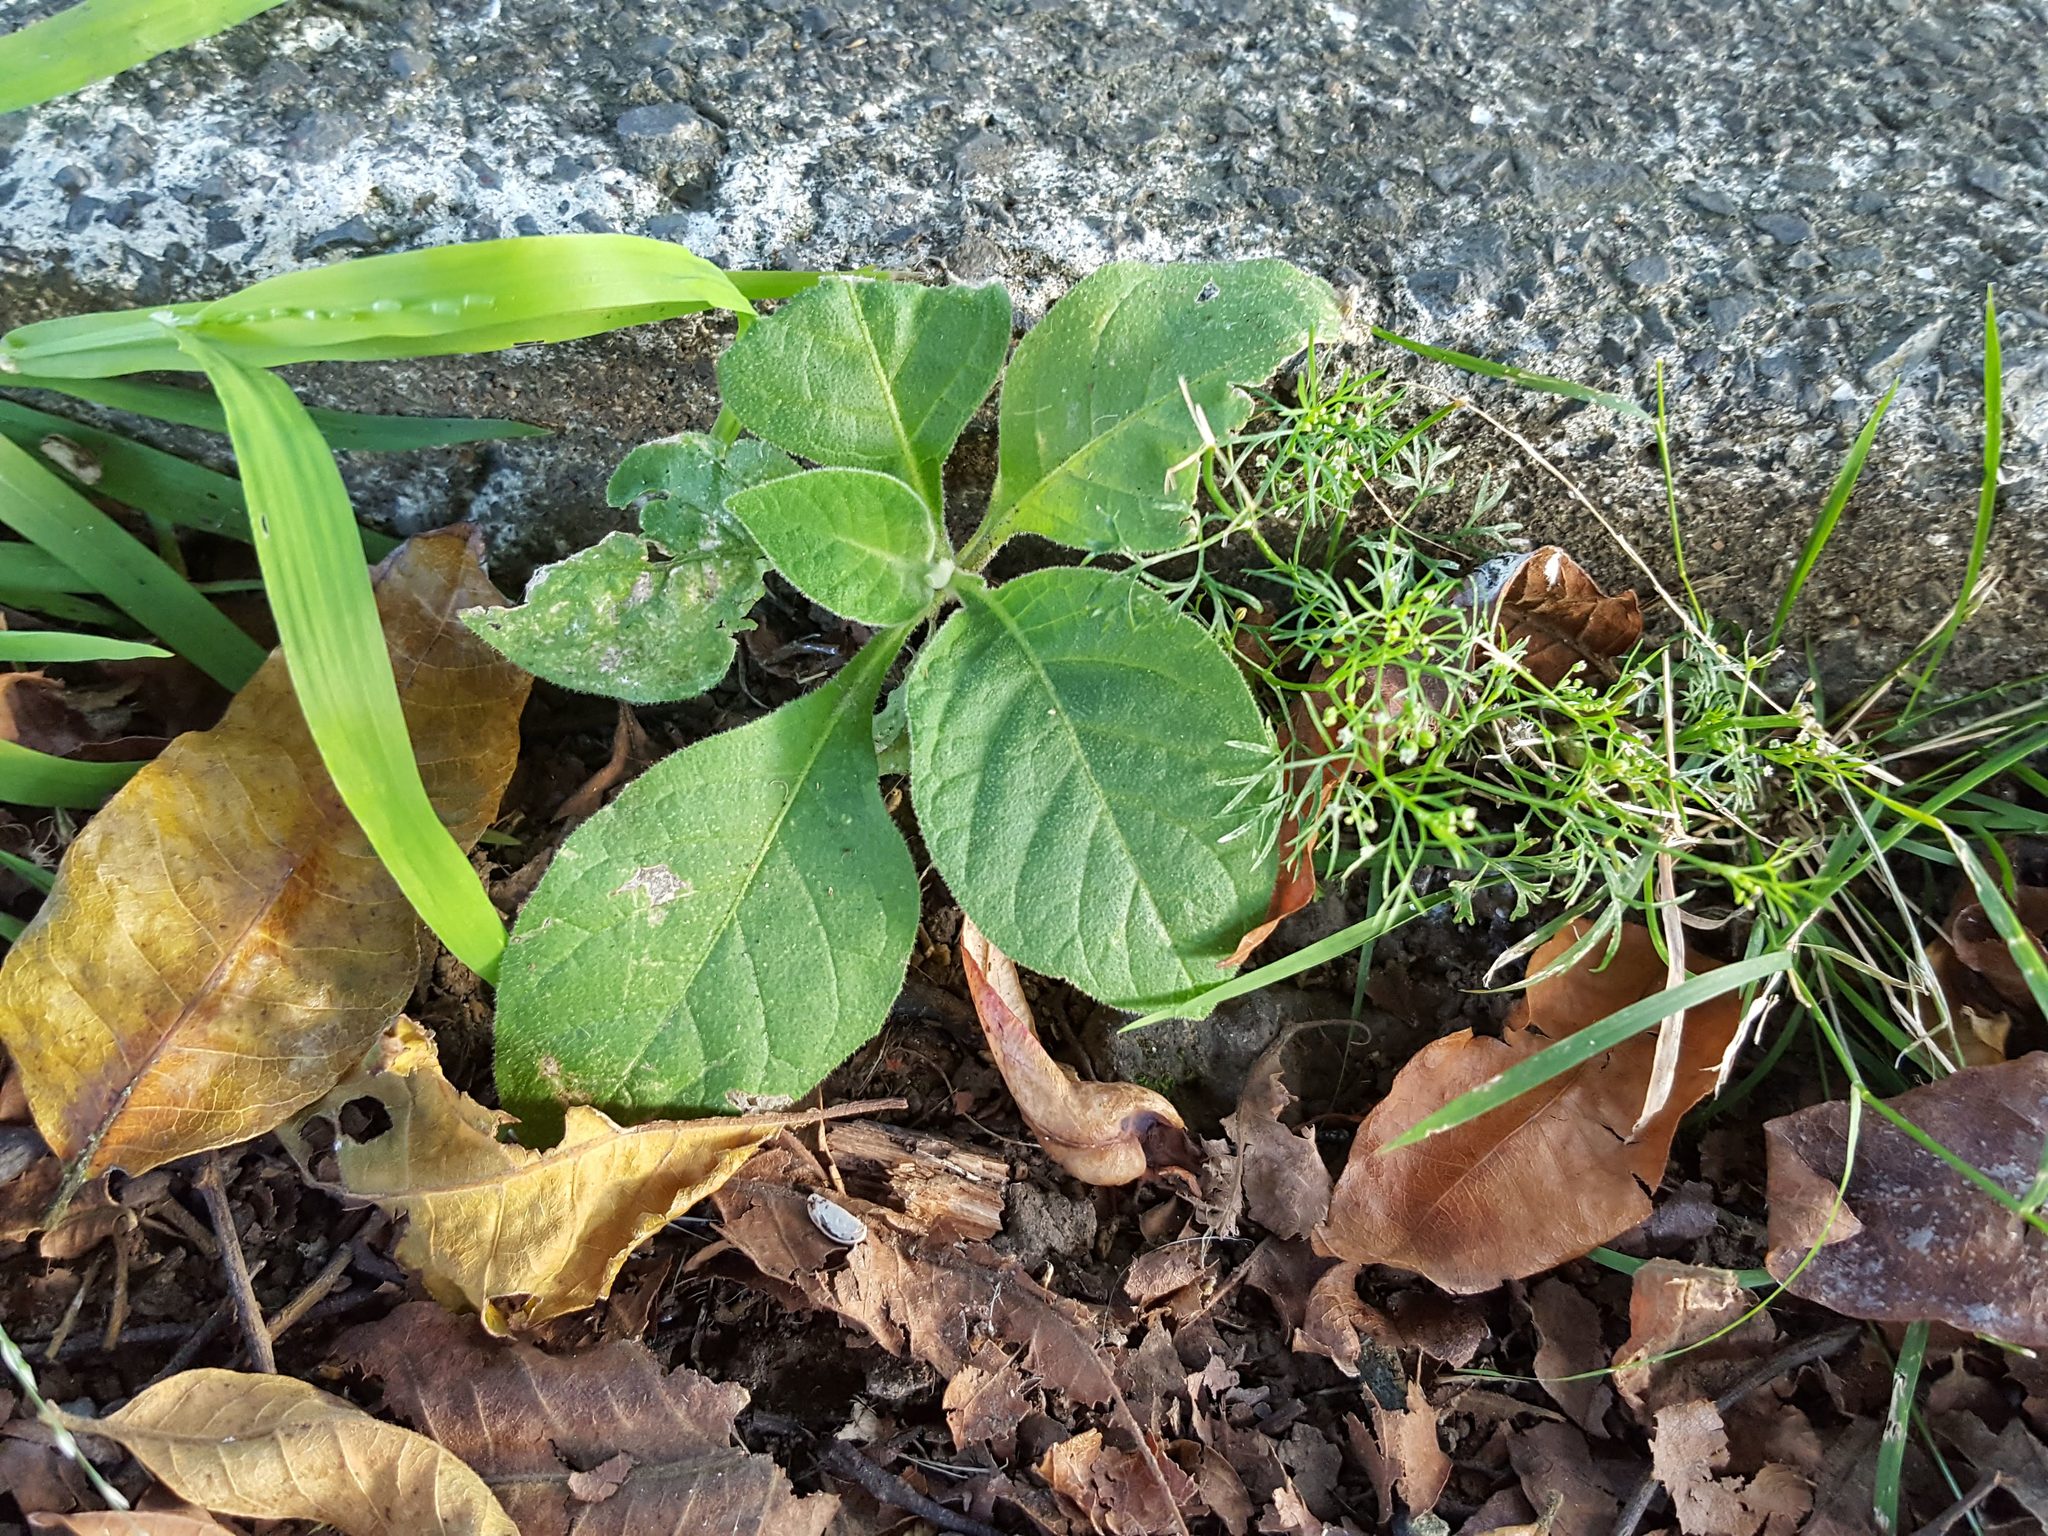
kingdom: Plantae
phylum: Tracheophyta
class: Magnoliopsida
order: Solanales
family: Solanaceae
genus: Solanum
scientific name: Solanum mauritianum
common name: Earleaf nightshade
